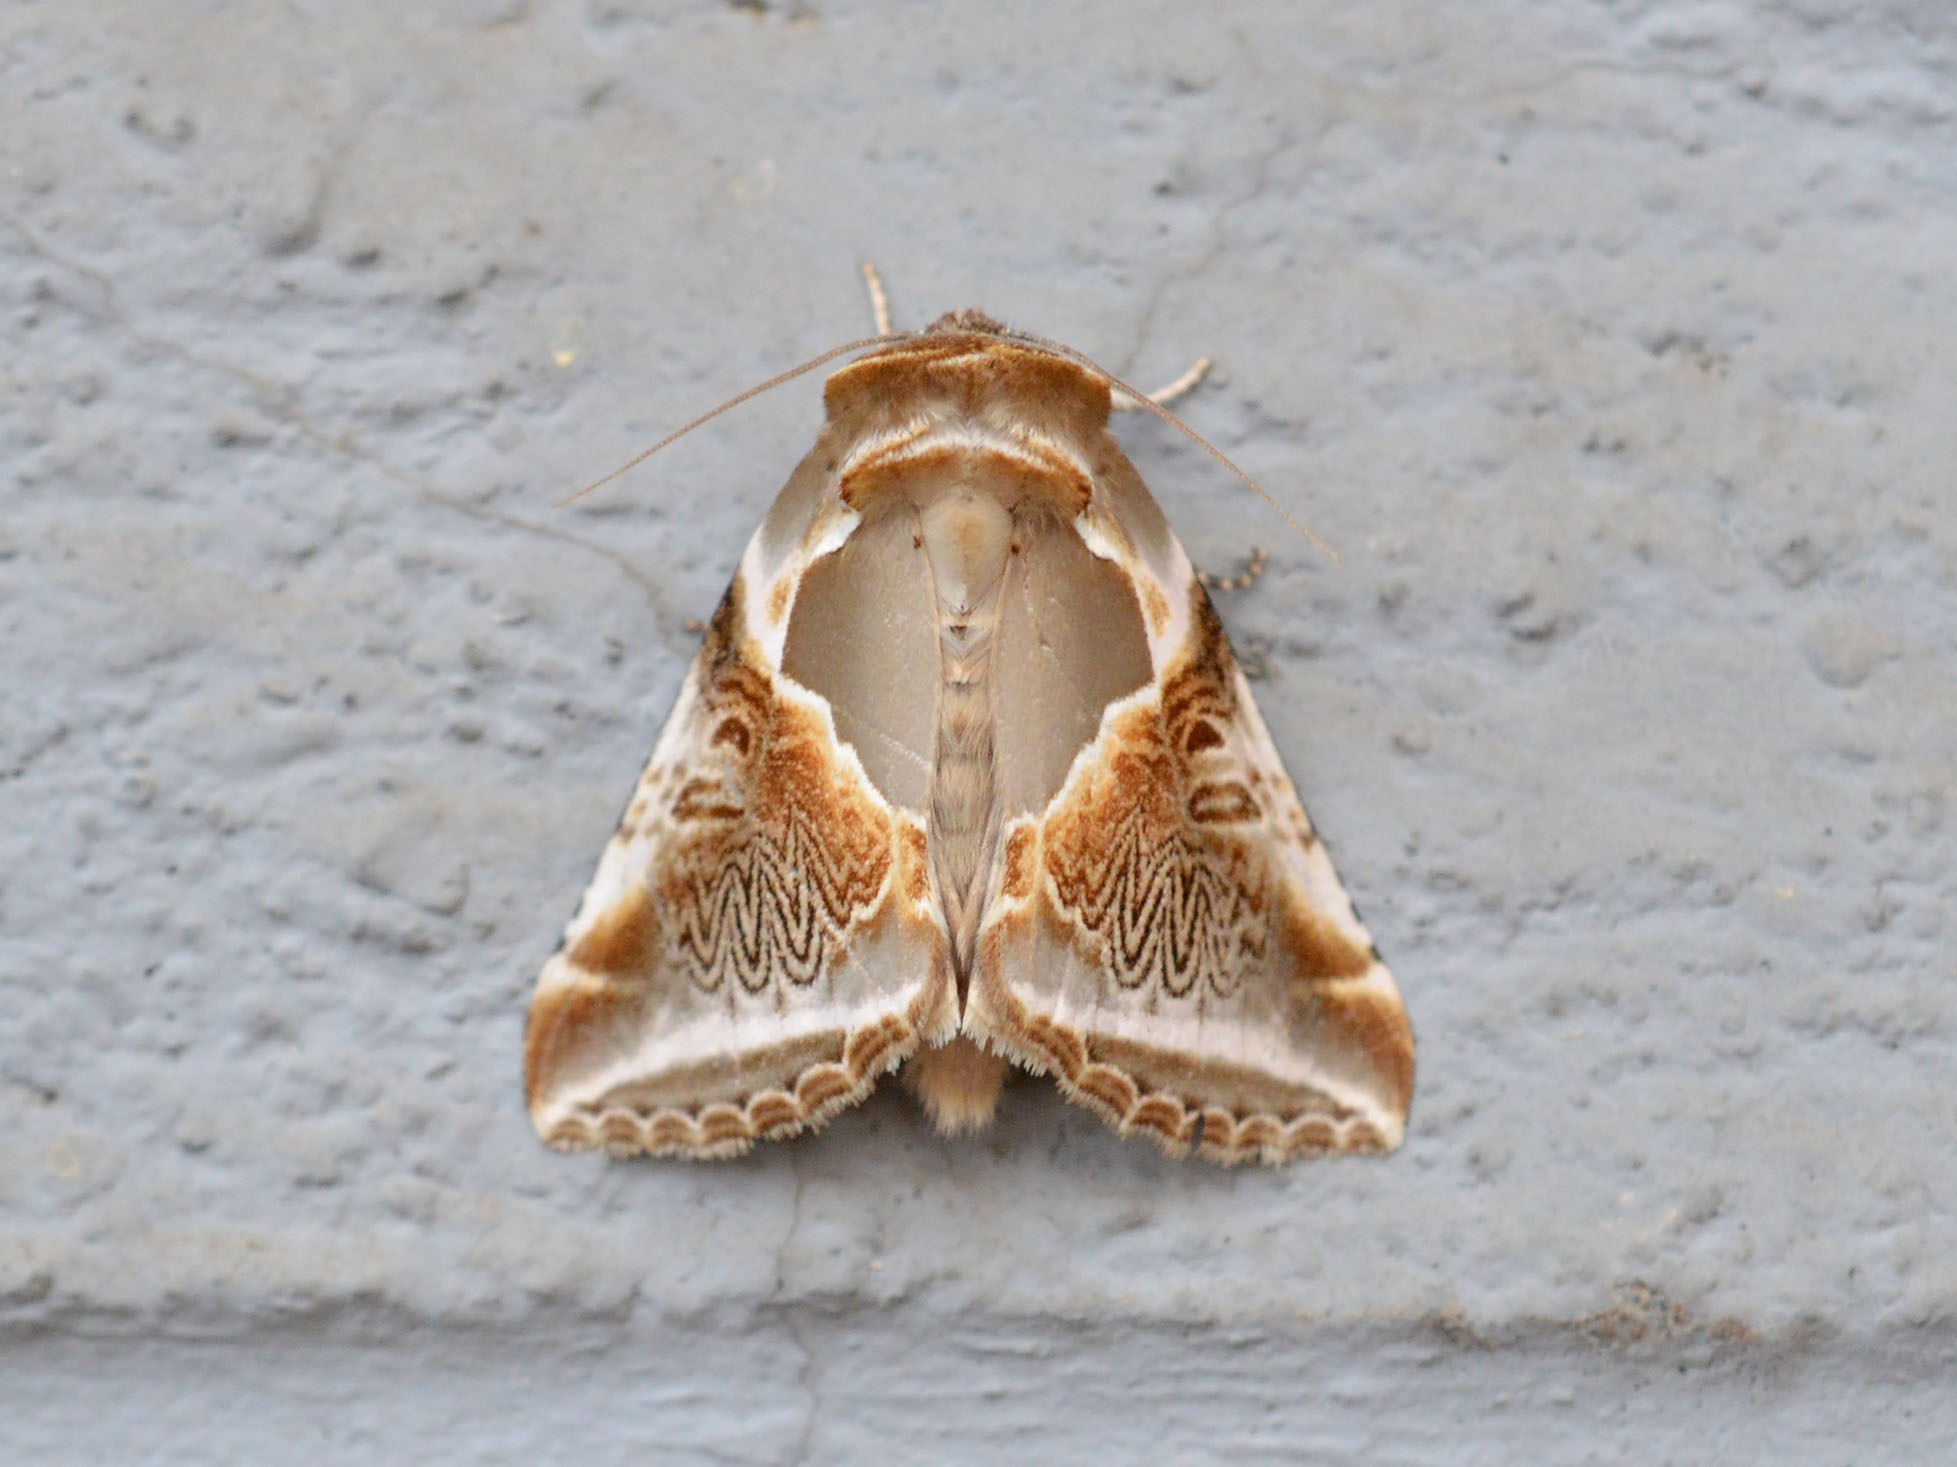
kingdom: Animalia
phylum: Arthropoda
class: Insecta
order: Lepidoptera
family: Drepanidae
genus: Habrosyne
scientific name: Habrosyne pyritoides
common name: Buff arches
